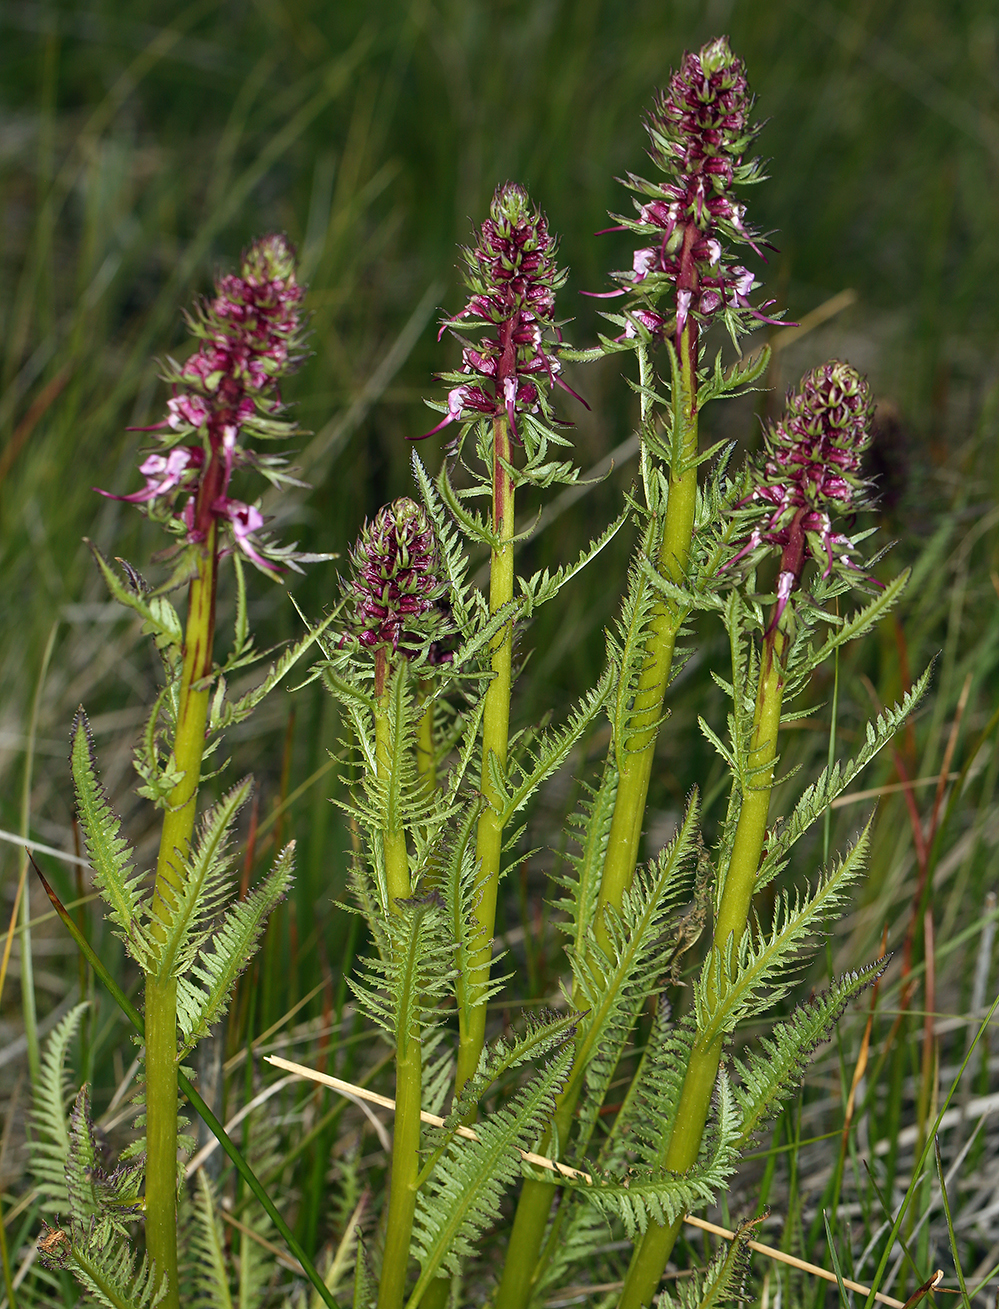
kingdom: Plantae
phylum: Tracheophyta
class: Magnoliopsida
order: Lamiales
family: Orobanchaceae
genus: Pedicularis
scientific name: Pedicularis groenlandica
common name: Elephant's-head
